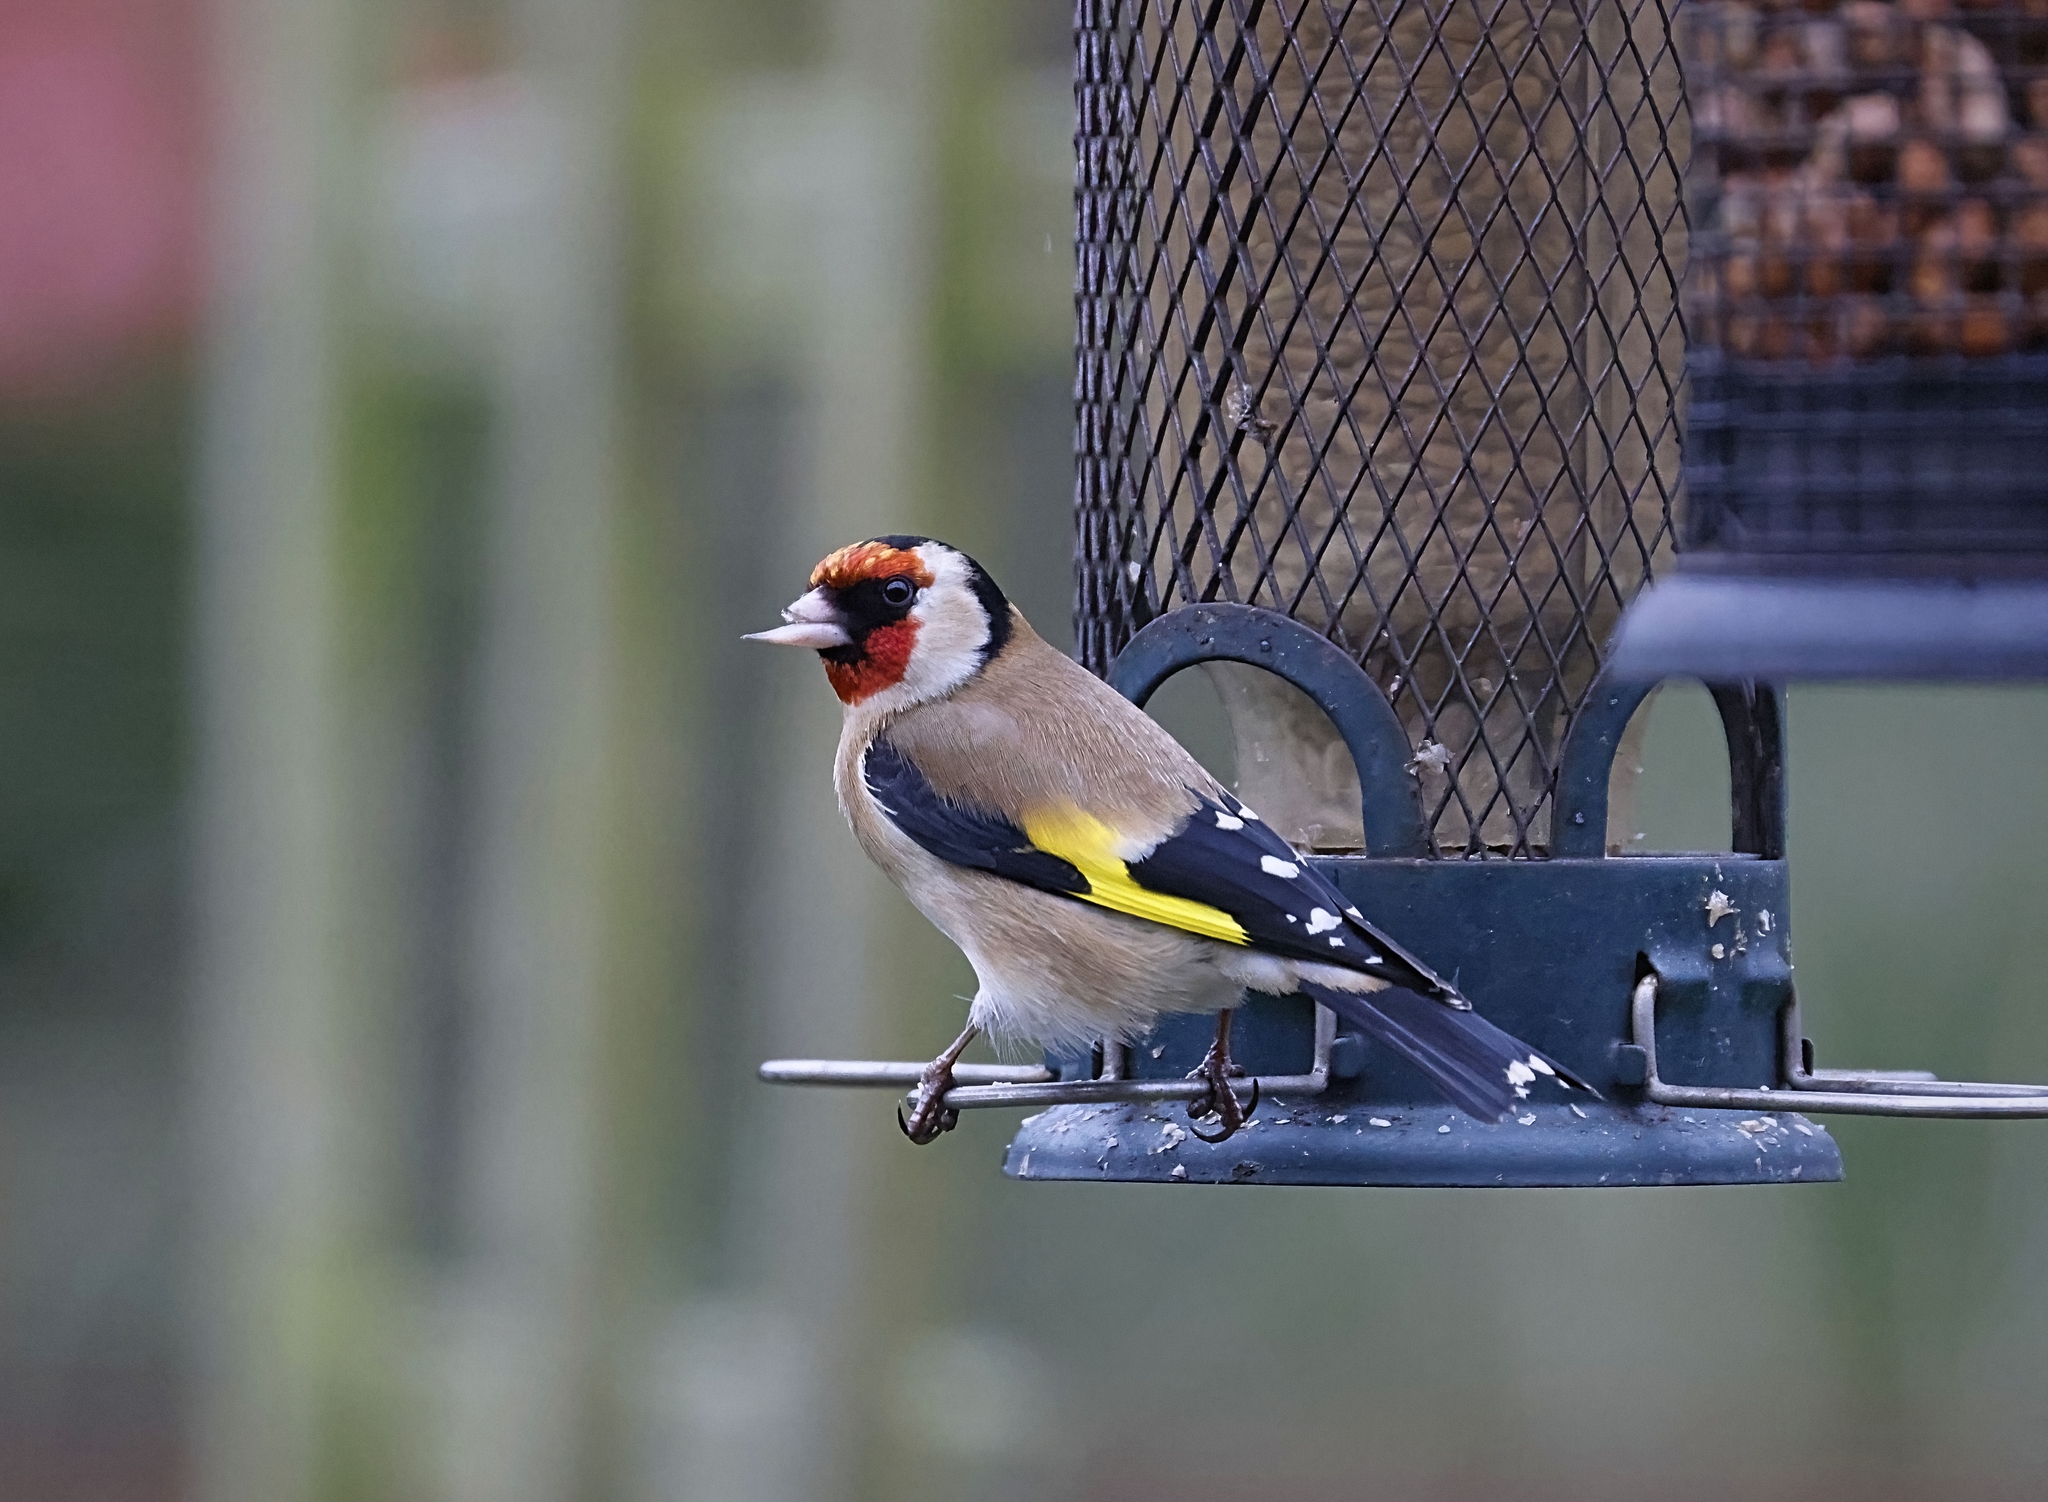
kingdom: Animalia
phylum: Chordata
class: Aves
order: Passeriformes
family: Fringillidae
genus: Carduelis
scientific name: Carduelis carduelis
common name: European goldfinch
